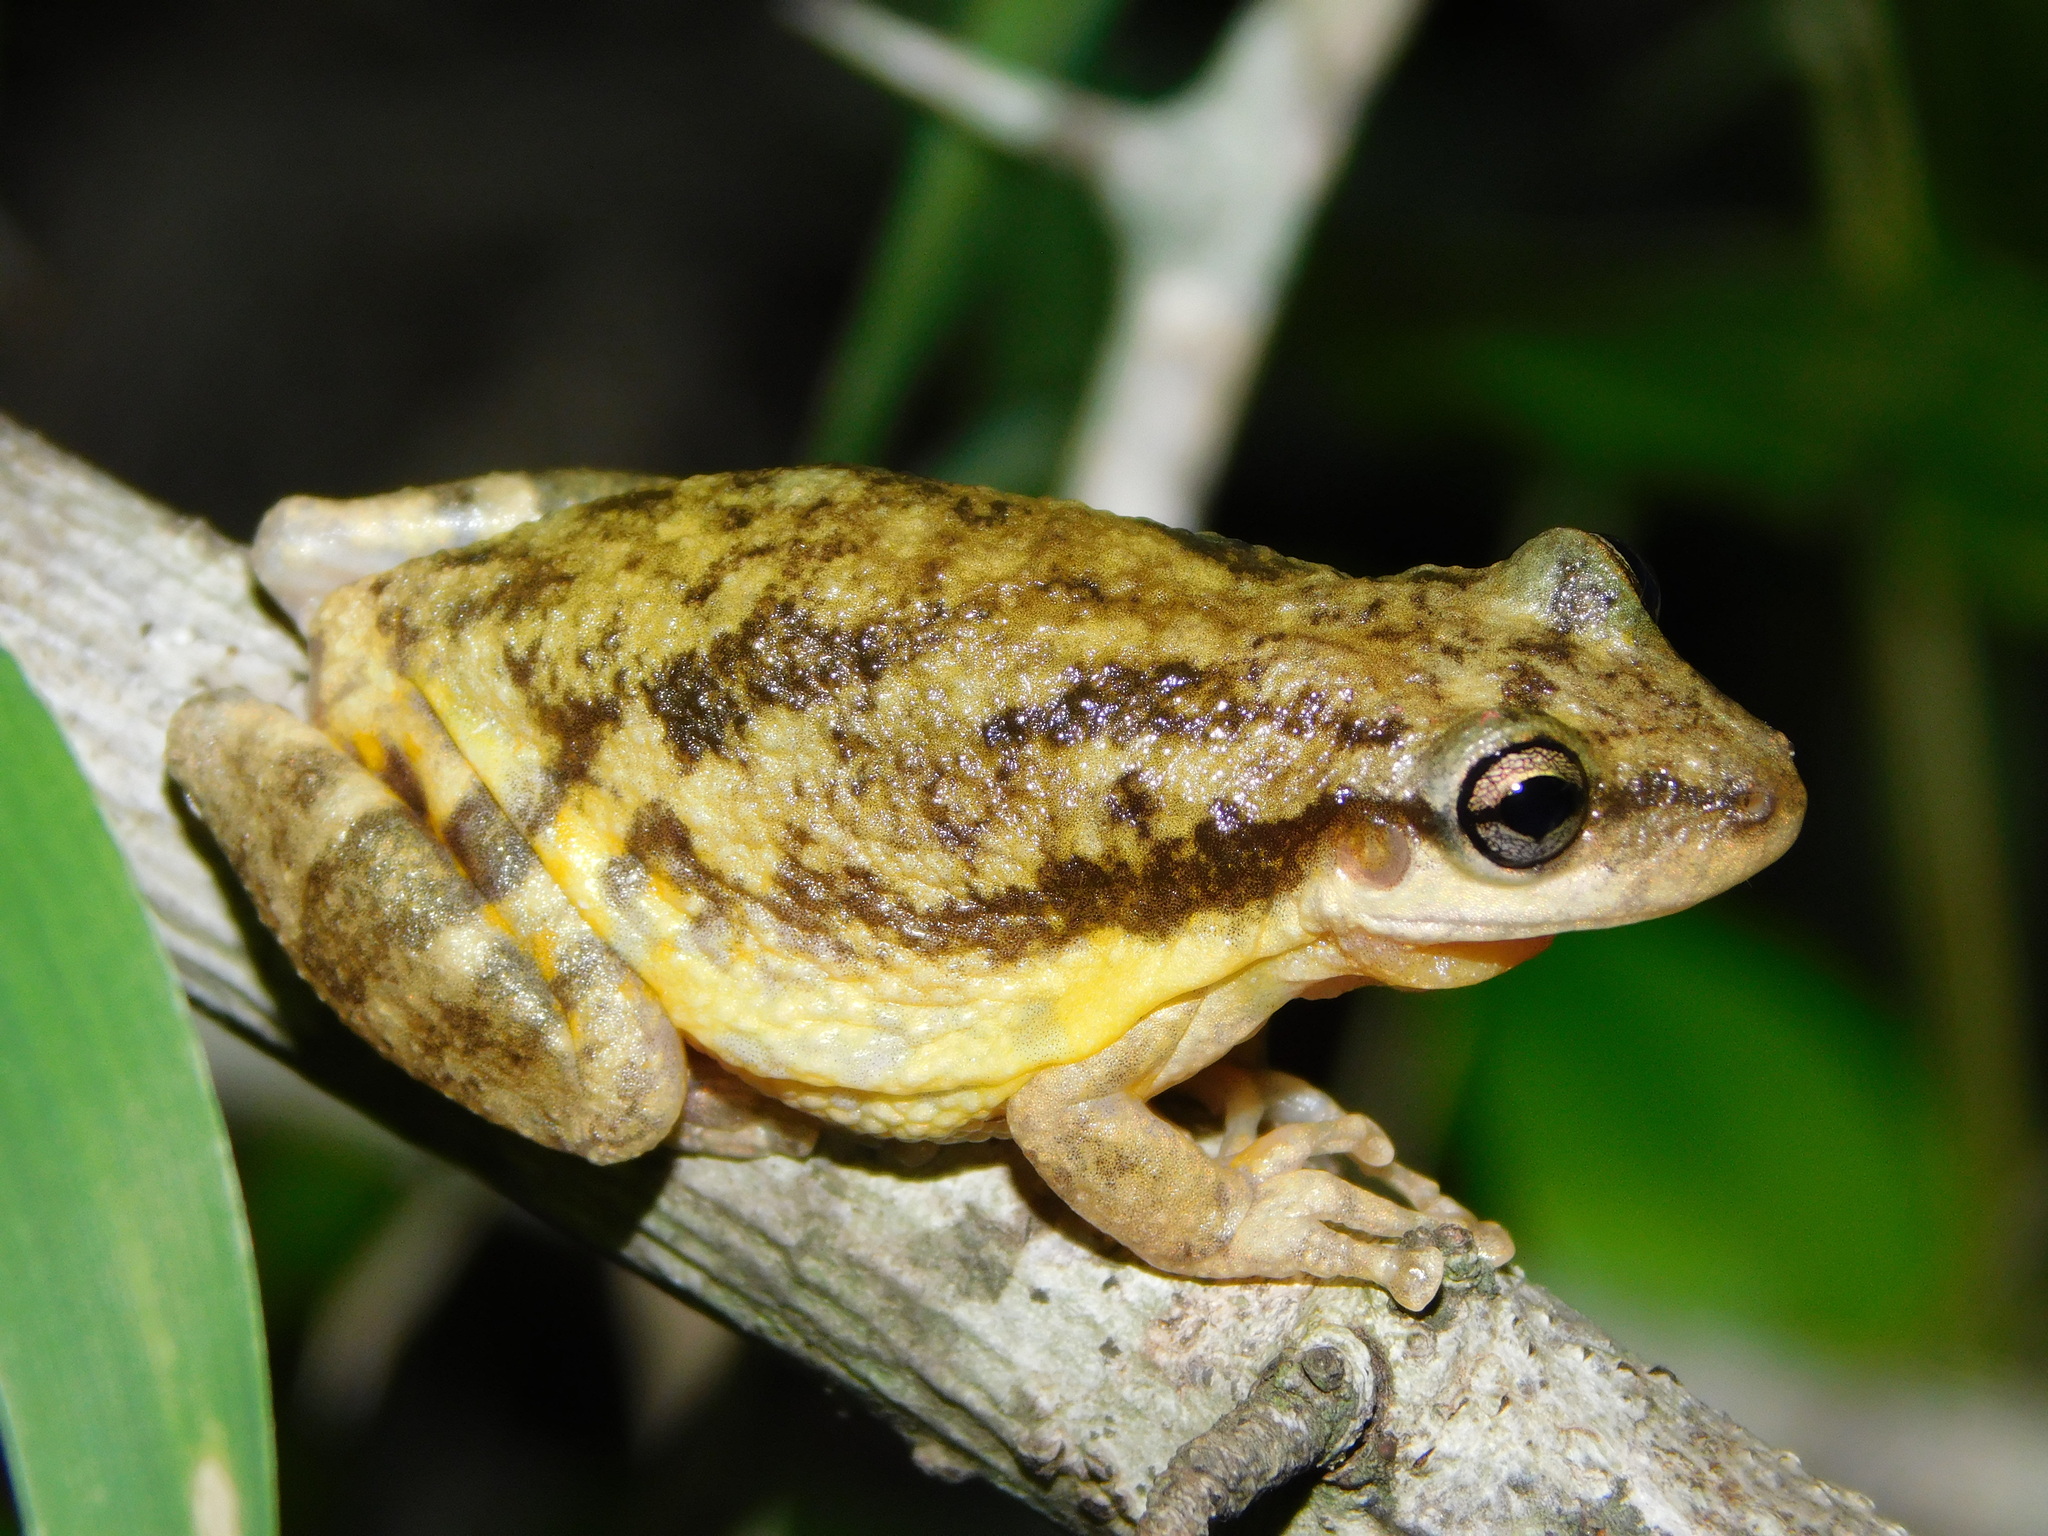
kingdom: Animalia
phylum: Chordata
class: Amphibia
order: Anura
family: Hylidae
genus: Scinax
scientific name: Scinax nasicus
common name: Lesser snouted treefrog
